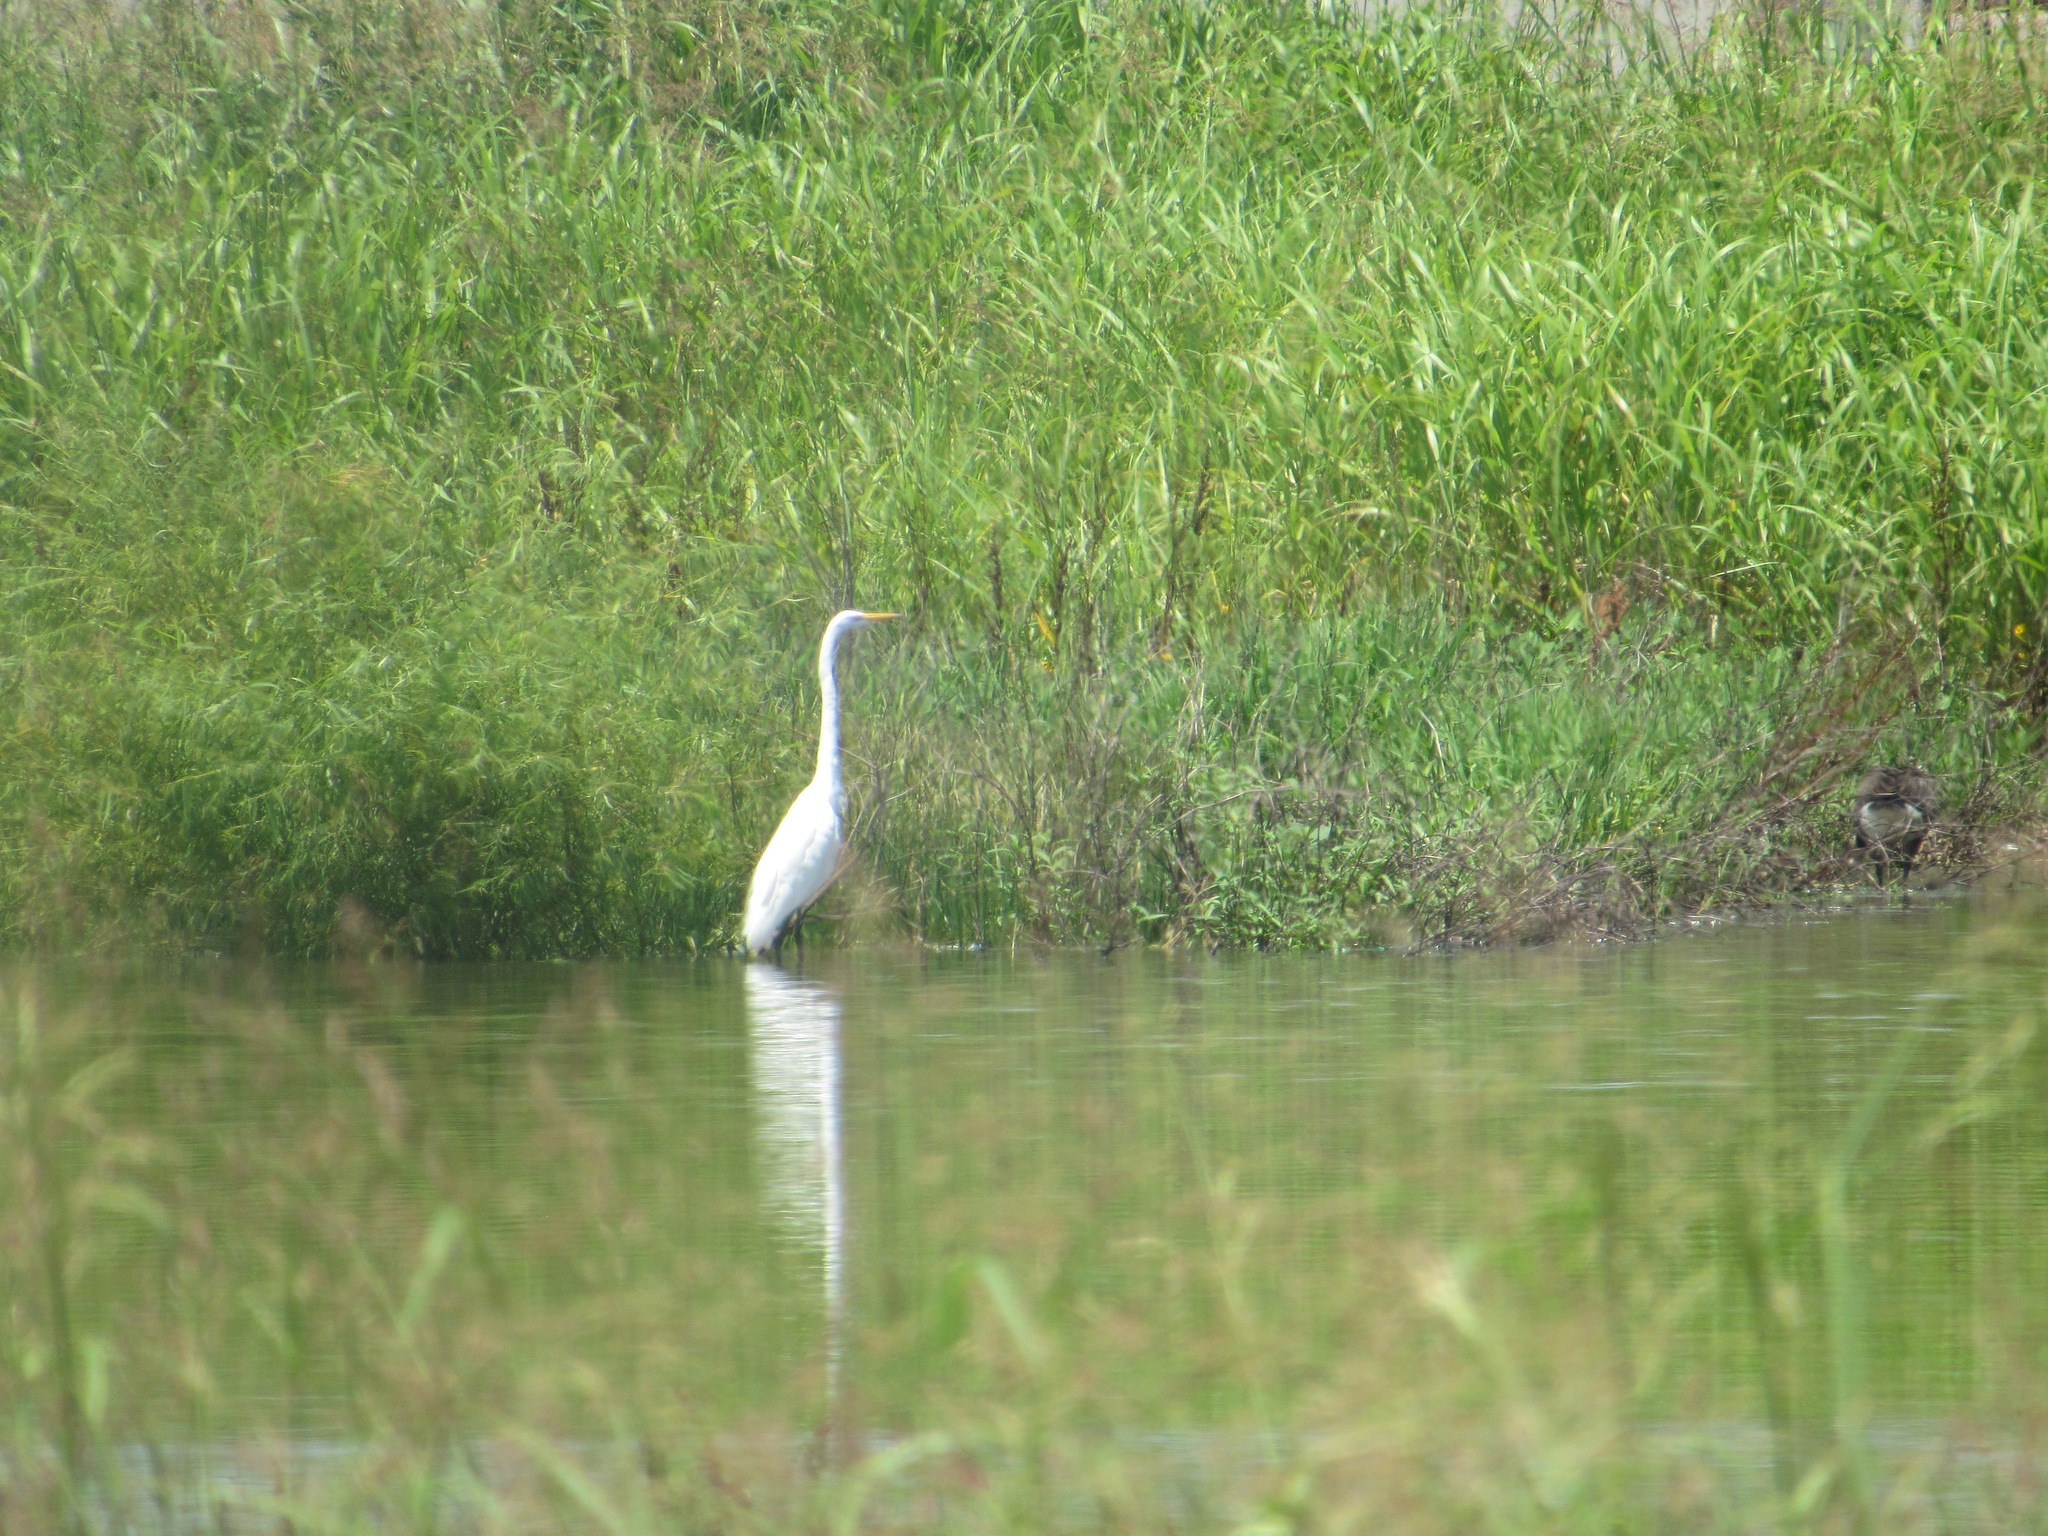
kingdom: Animalia
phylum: Chordata
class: Aves
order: Pelecaniformes
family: Ardeidae
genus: Ardea
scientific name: Ardea alba
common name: Great egret
